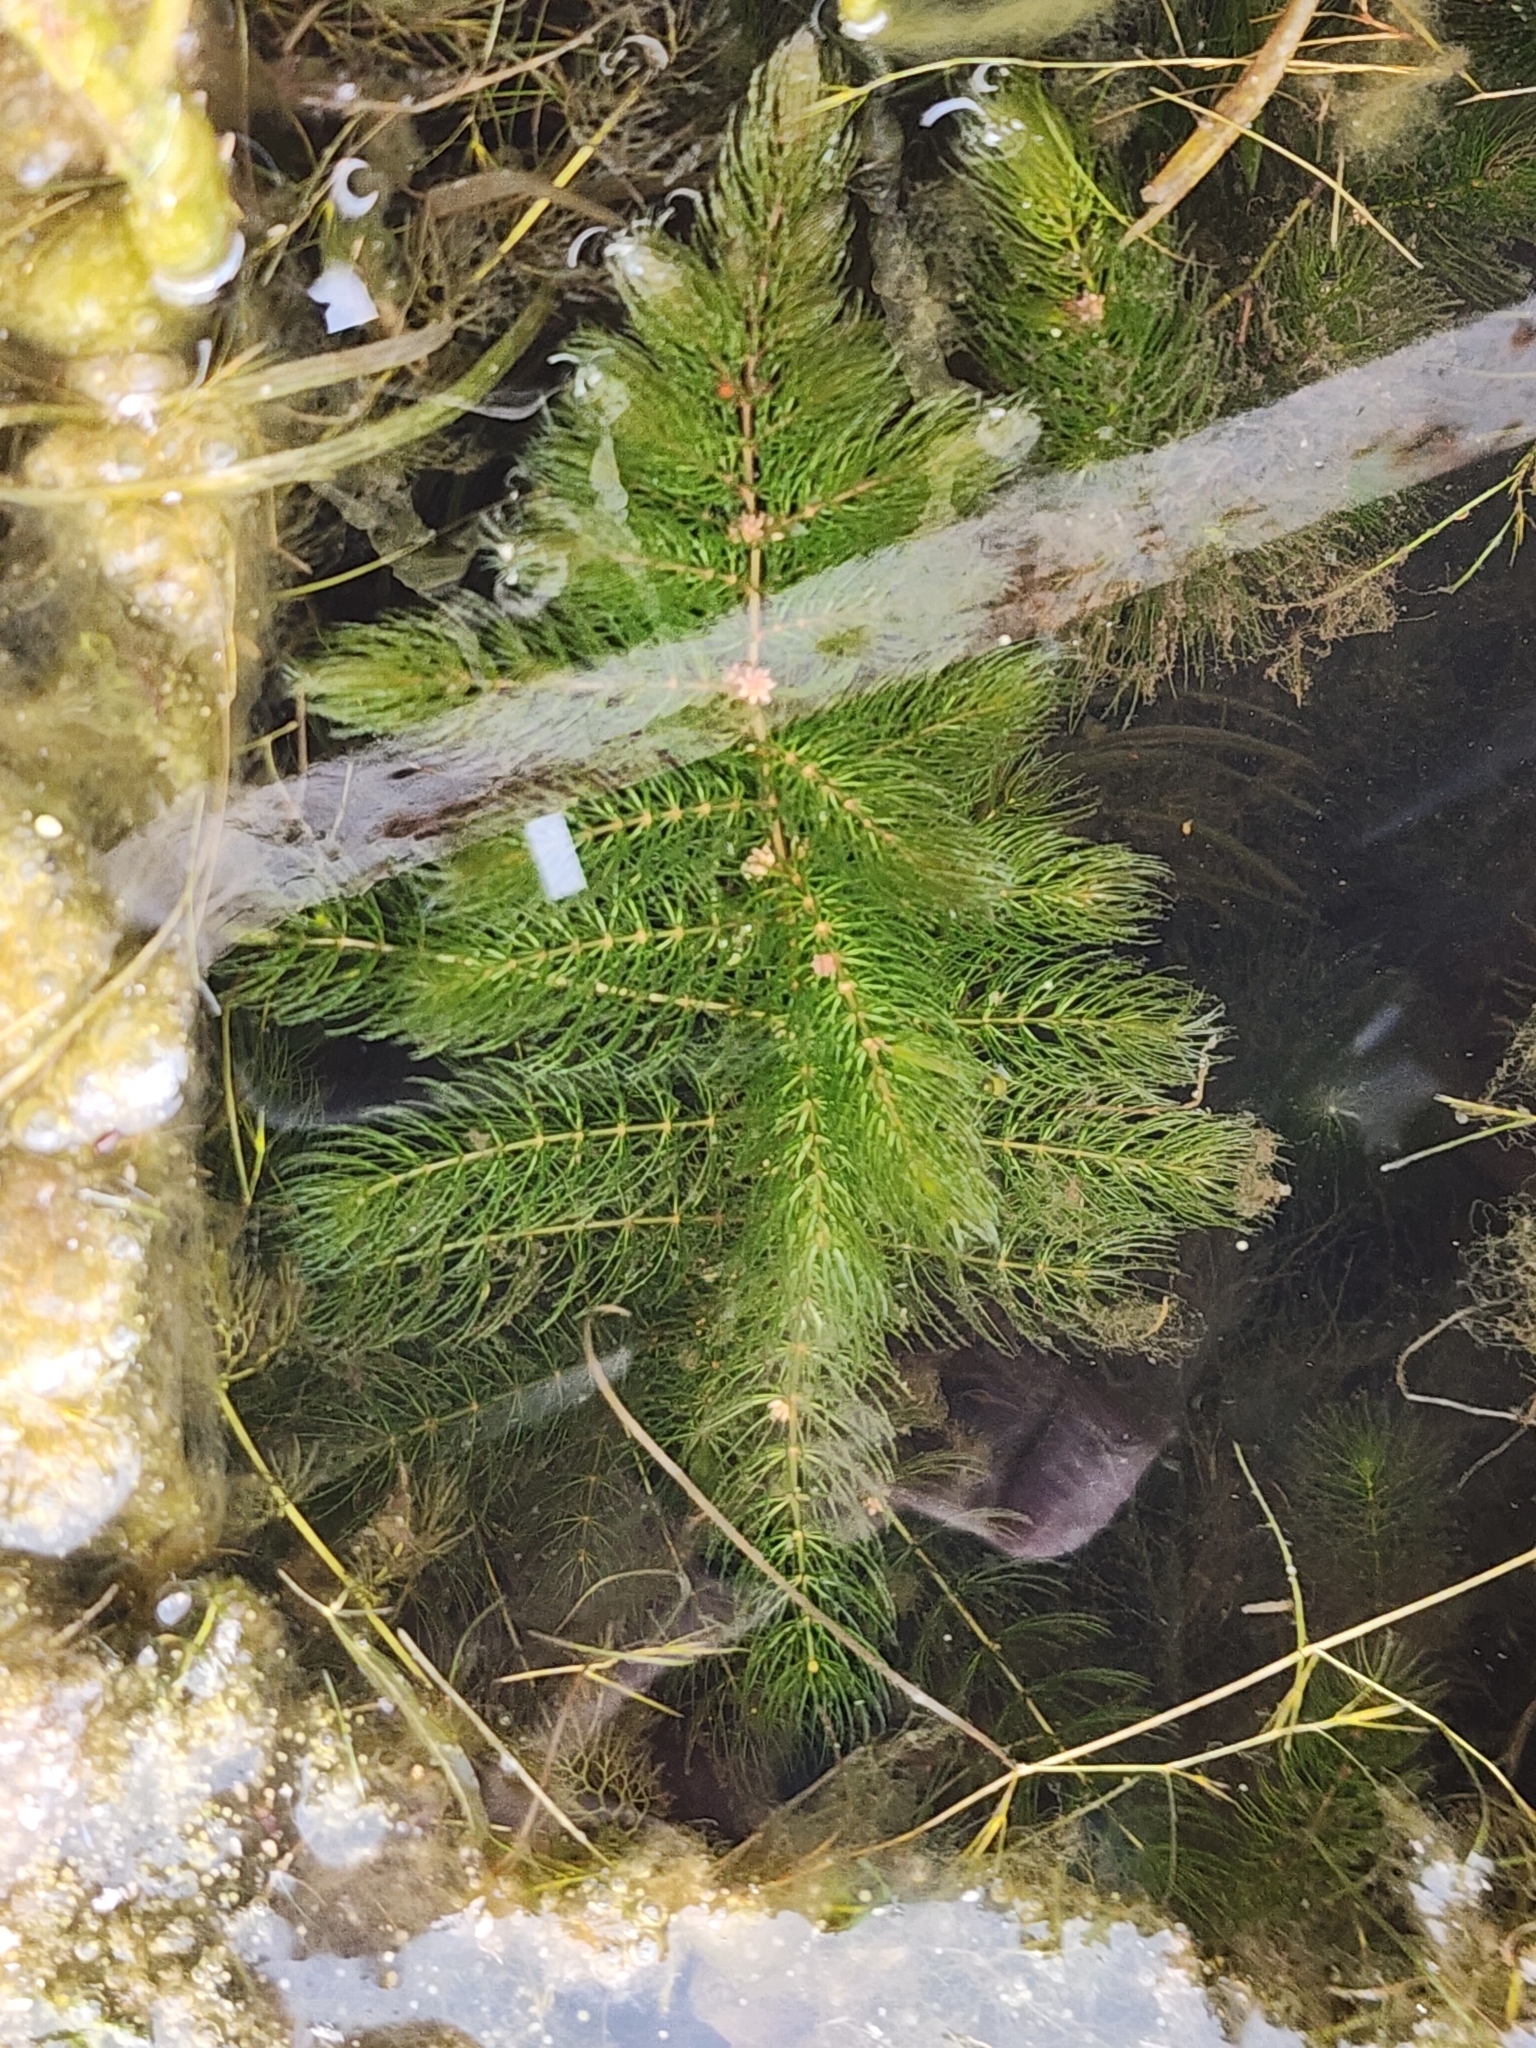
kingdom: Plantae
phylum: Tracheophyta
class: Magnoliopsida
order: Ceratophyllales
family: Ceratophyllaceae
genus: Ceratophyllum
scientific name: Ceratophyllum demersum
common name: Rigid hornwort
